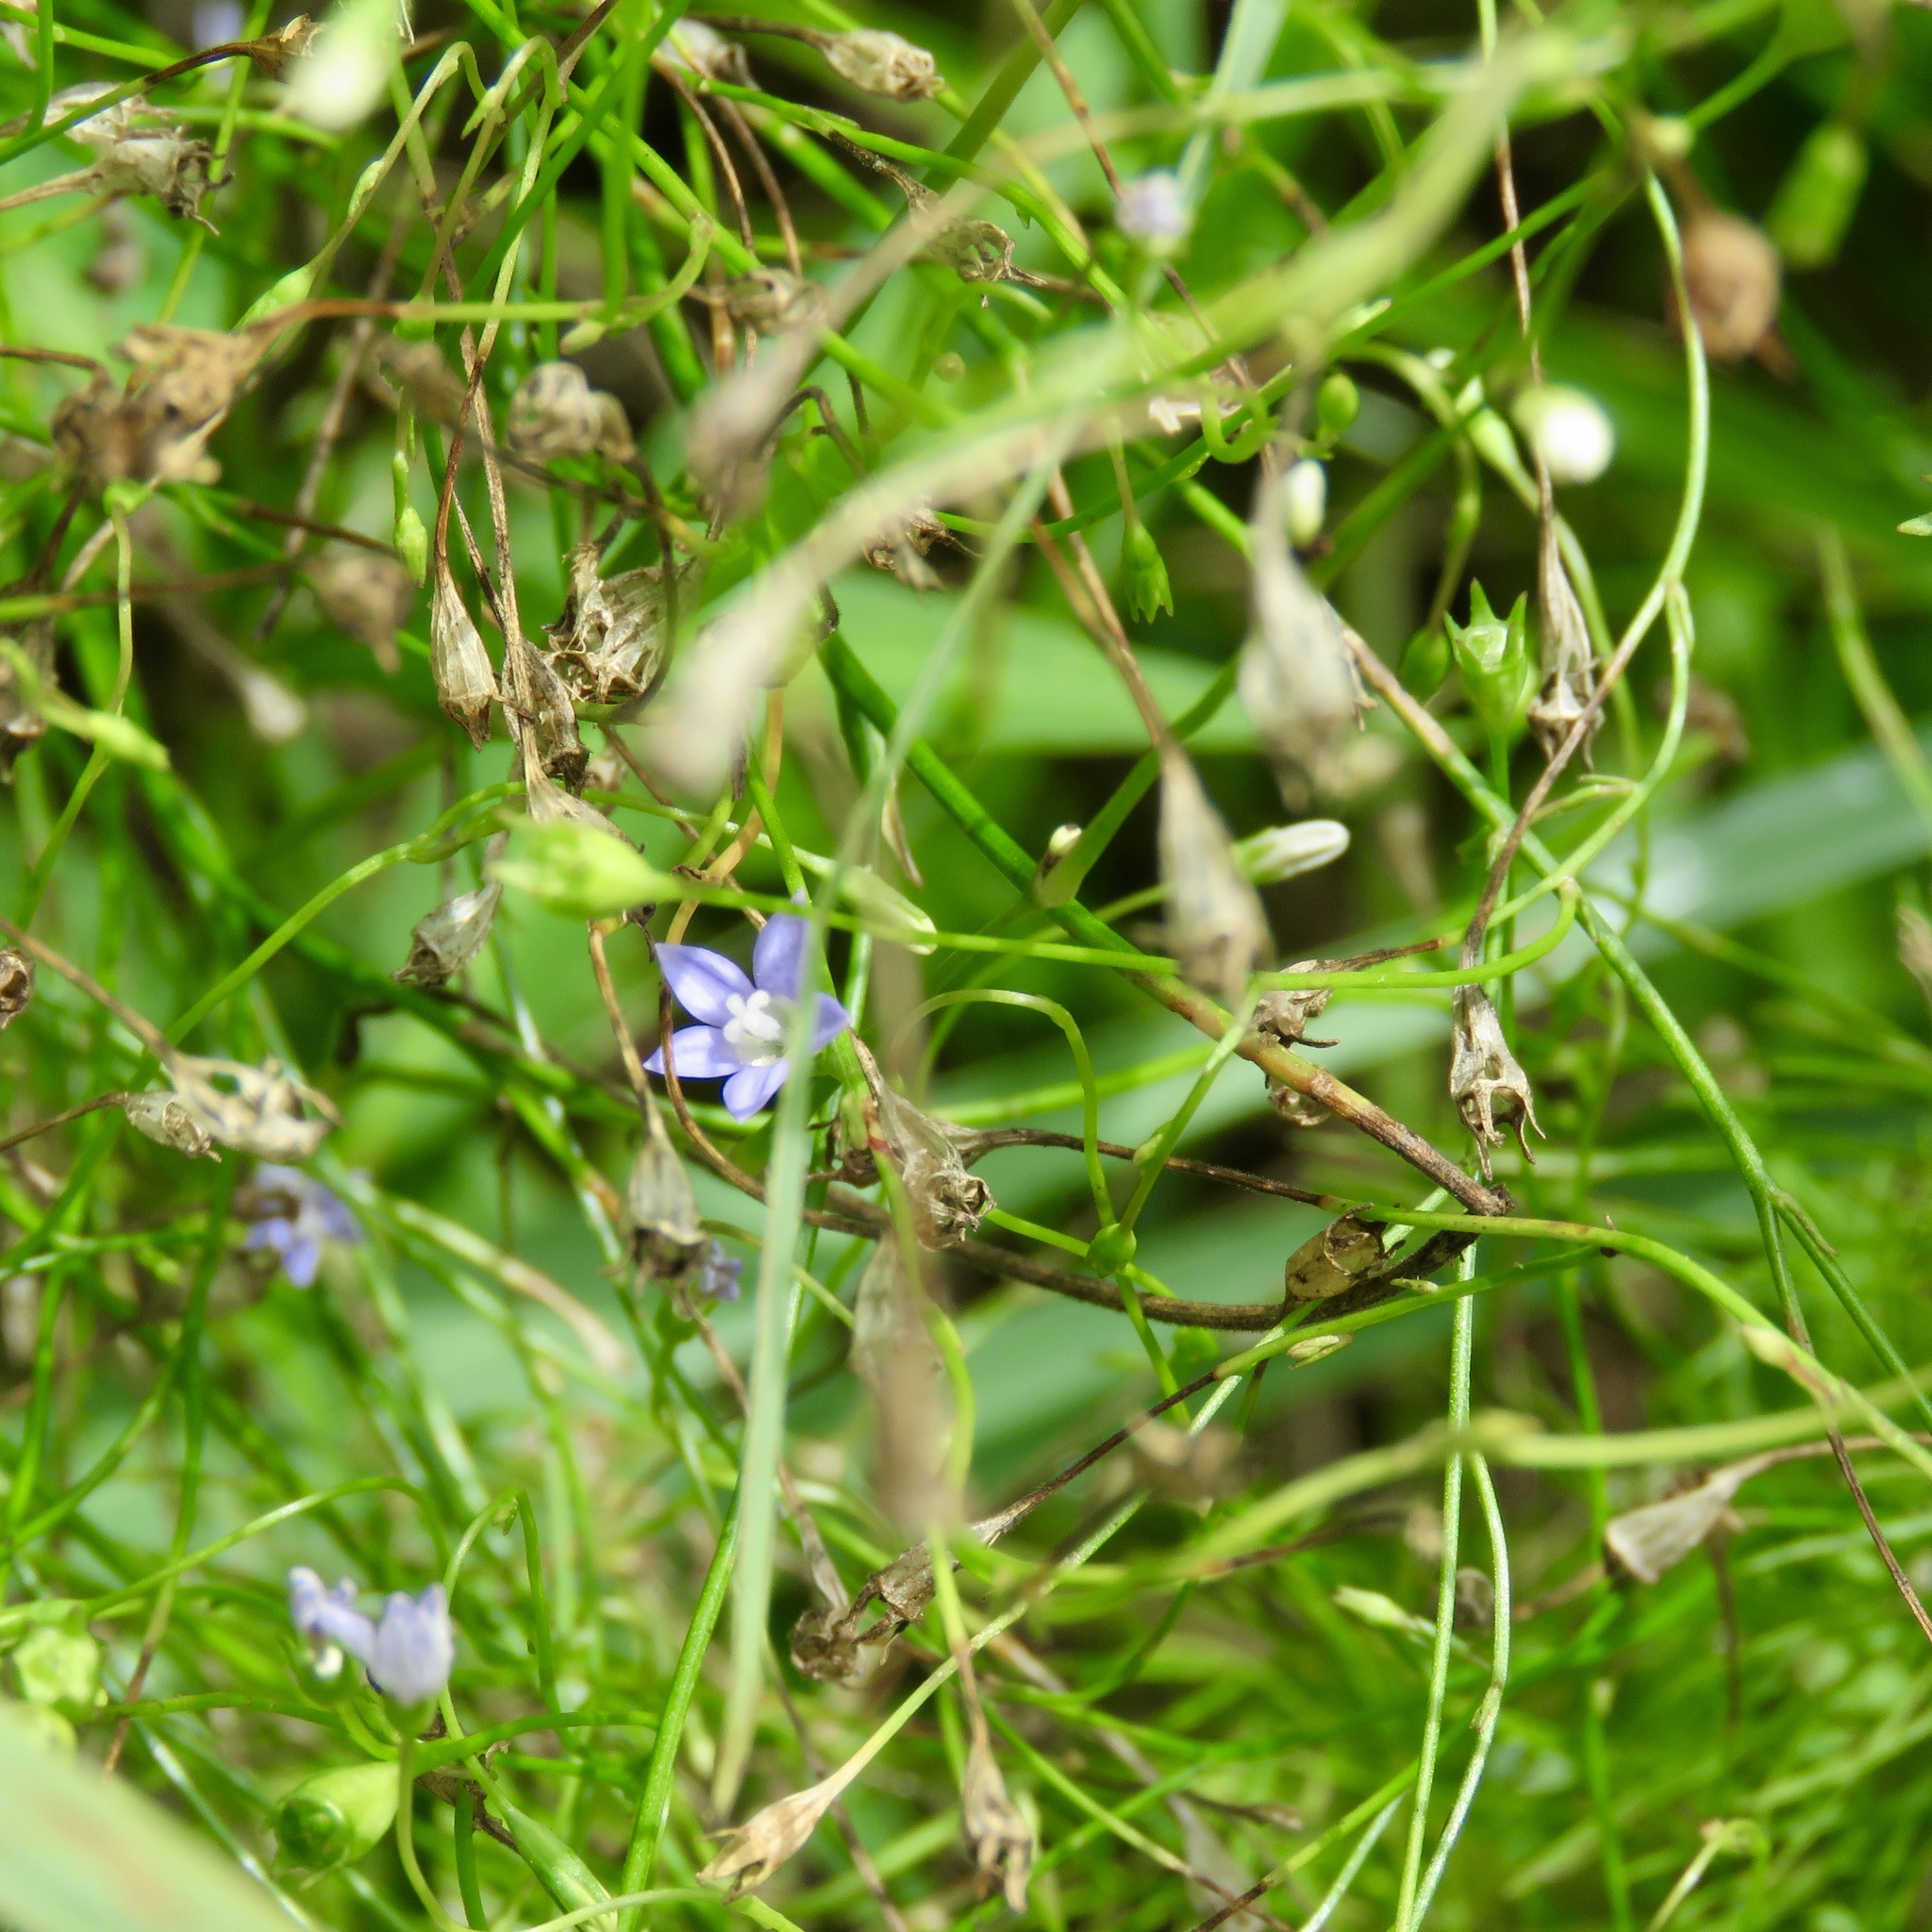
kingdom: Plantae
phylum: Tracheophyta
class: Magnoliopsida
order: Asterales
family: Campanulaceae
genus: Wahlenbergia
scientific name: Wahlenbergia marginata
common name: Southern rockbell
